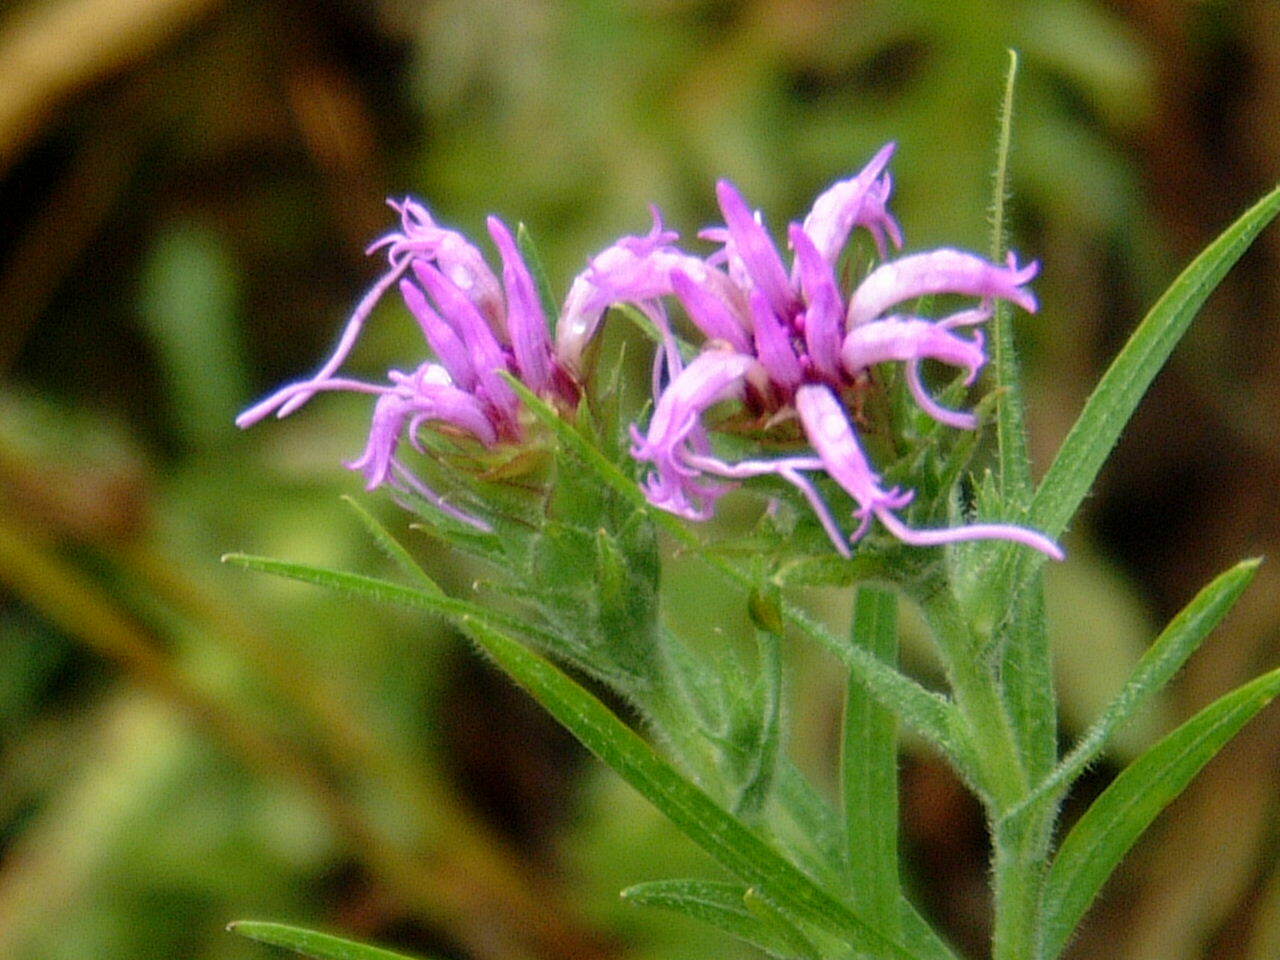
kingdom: Plantae
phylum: Tracheophyta
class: Magnoliopsida
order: Asterales
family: Asteraceae
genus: Liatris
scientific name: Liatris squarrosa
